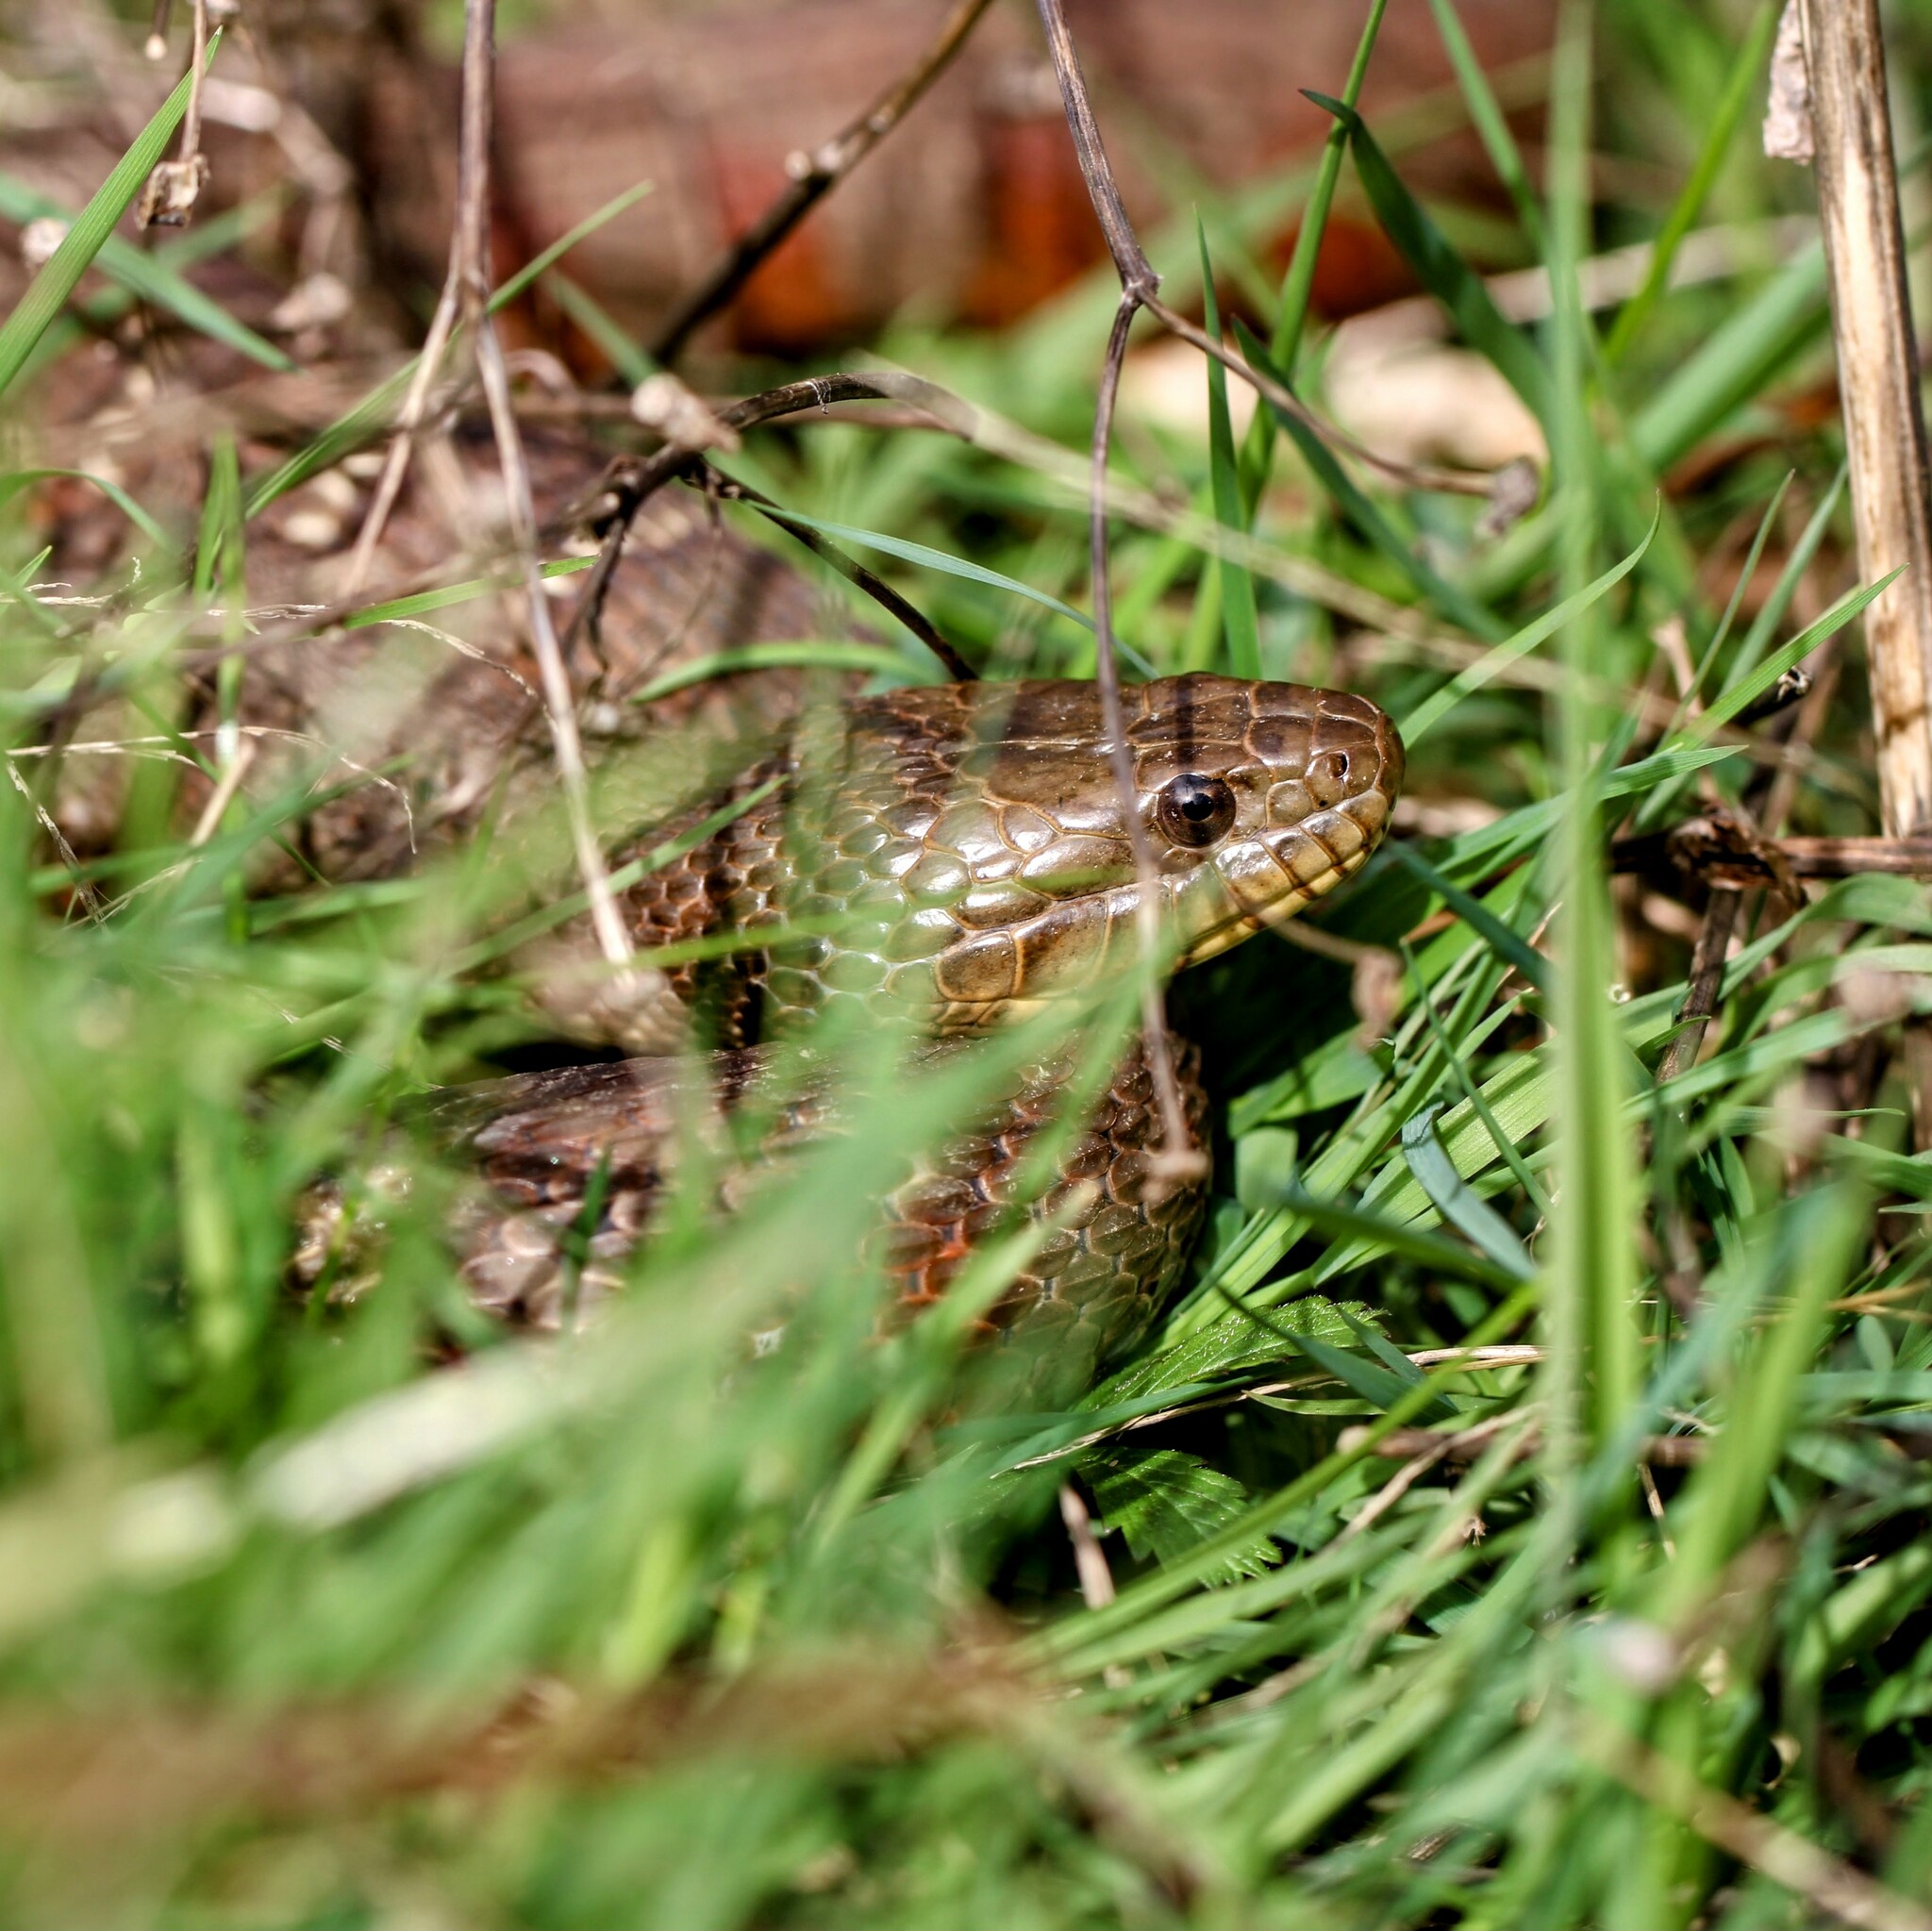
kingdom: Animalia
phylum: Chordata
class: Squamata
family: Colubridae
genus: Nerodia
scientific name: Nerodia sipedon
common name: Northern water snake
